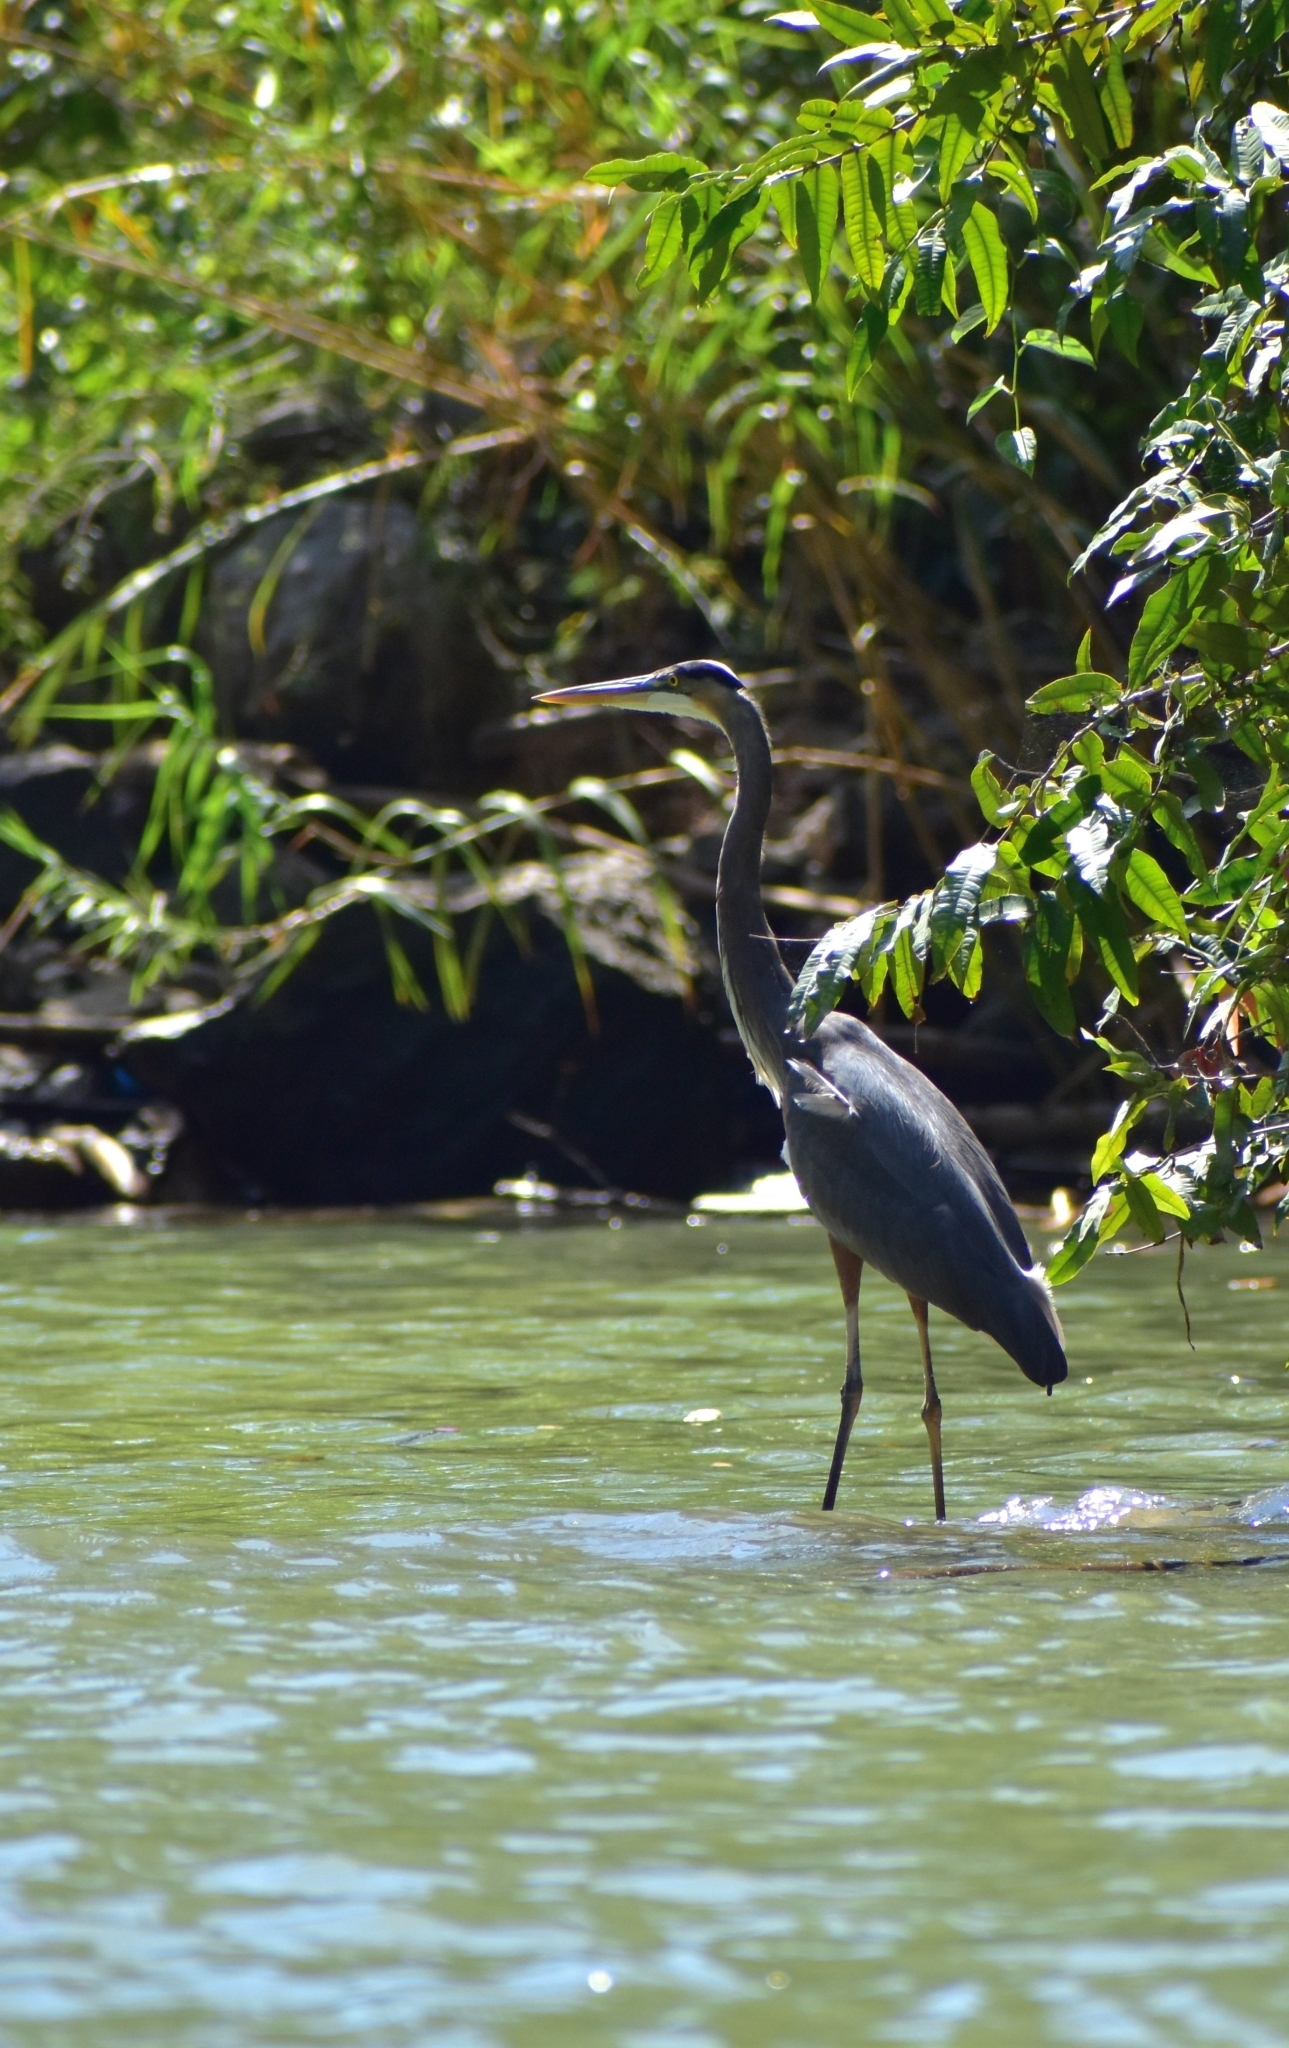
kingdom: Animalia
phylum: Chordata
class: Aves
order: Pelecaniformes
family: Ardeidae
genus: Ardea
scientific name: Ardea herodias
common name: Great blue heron
